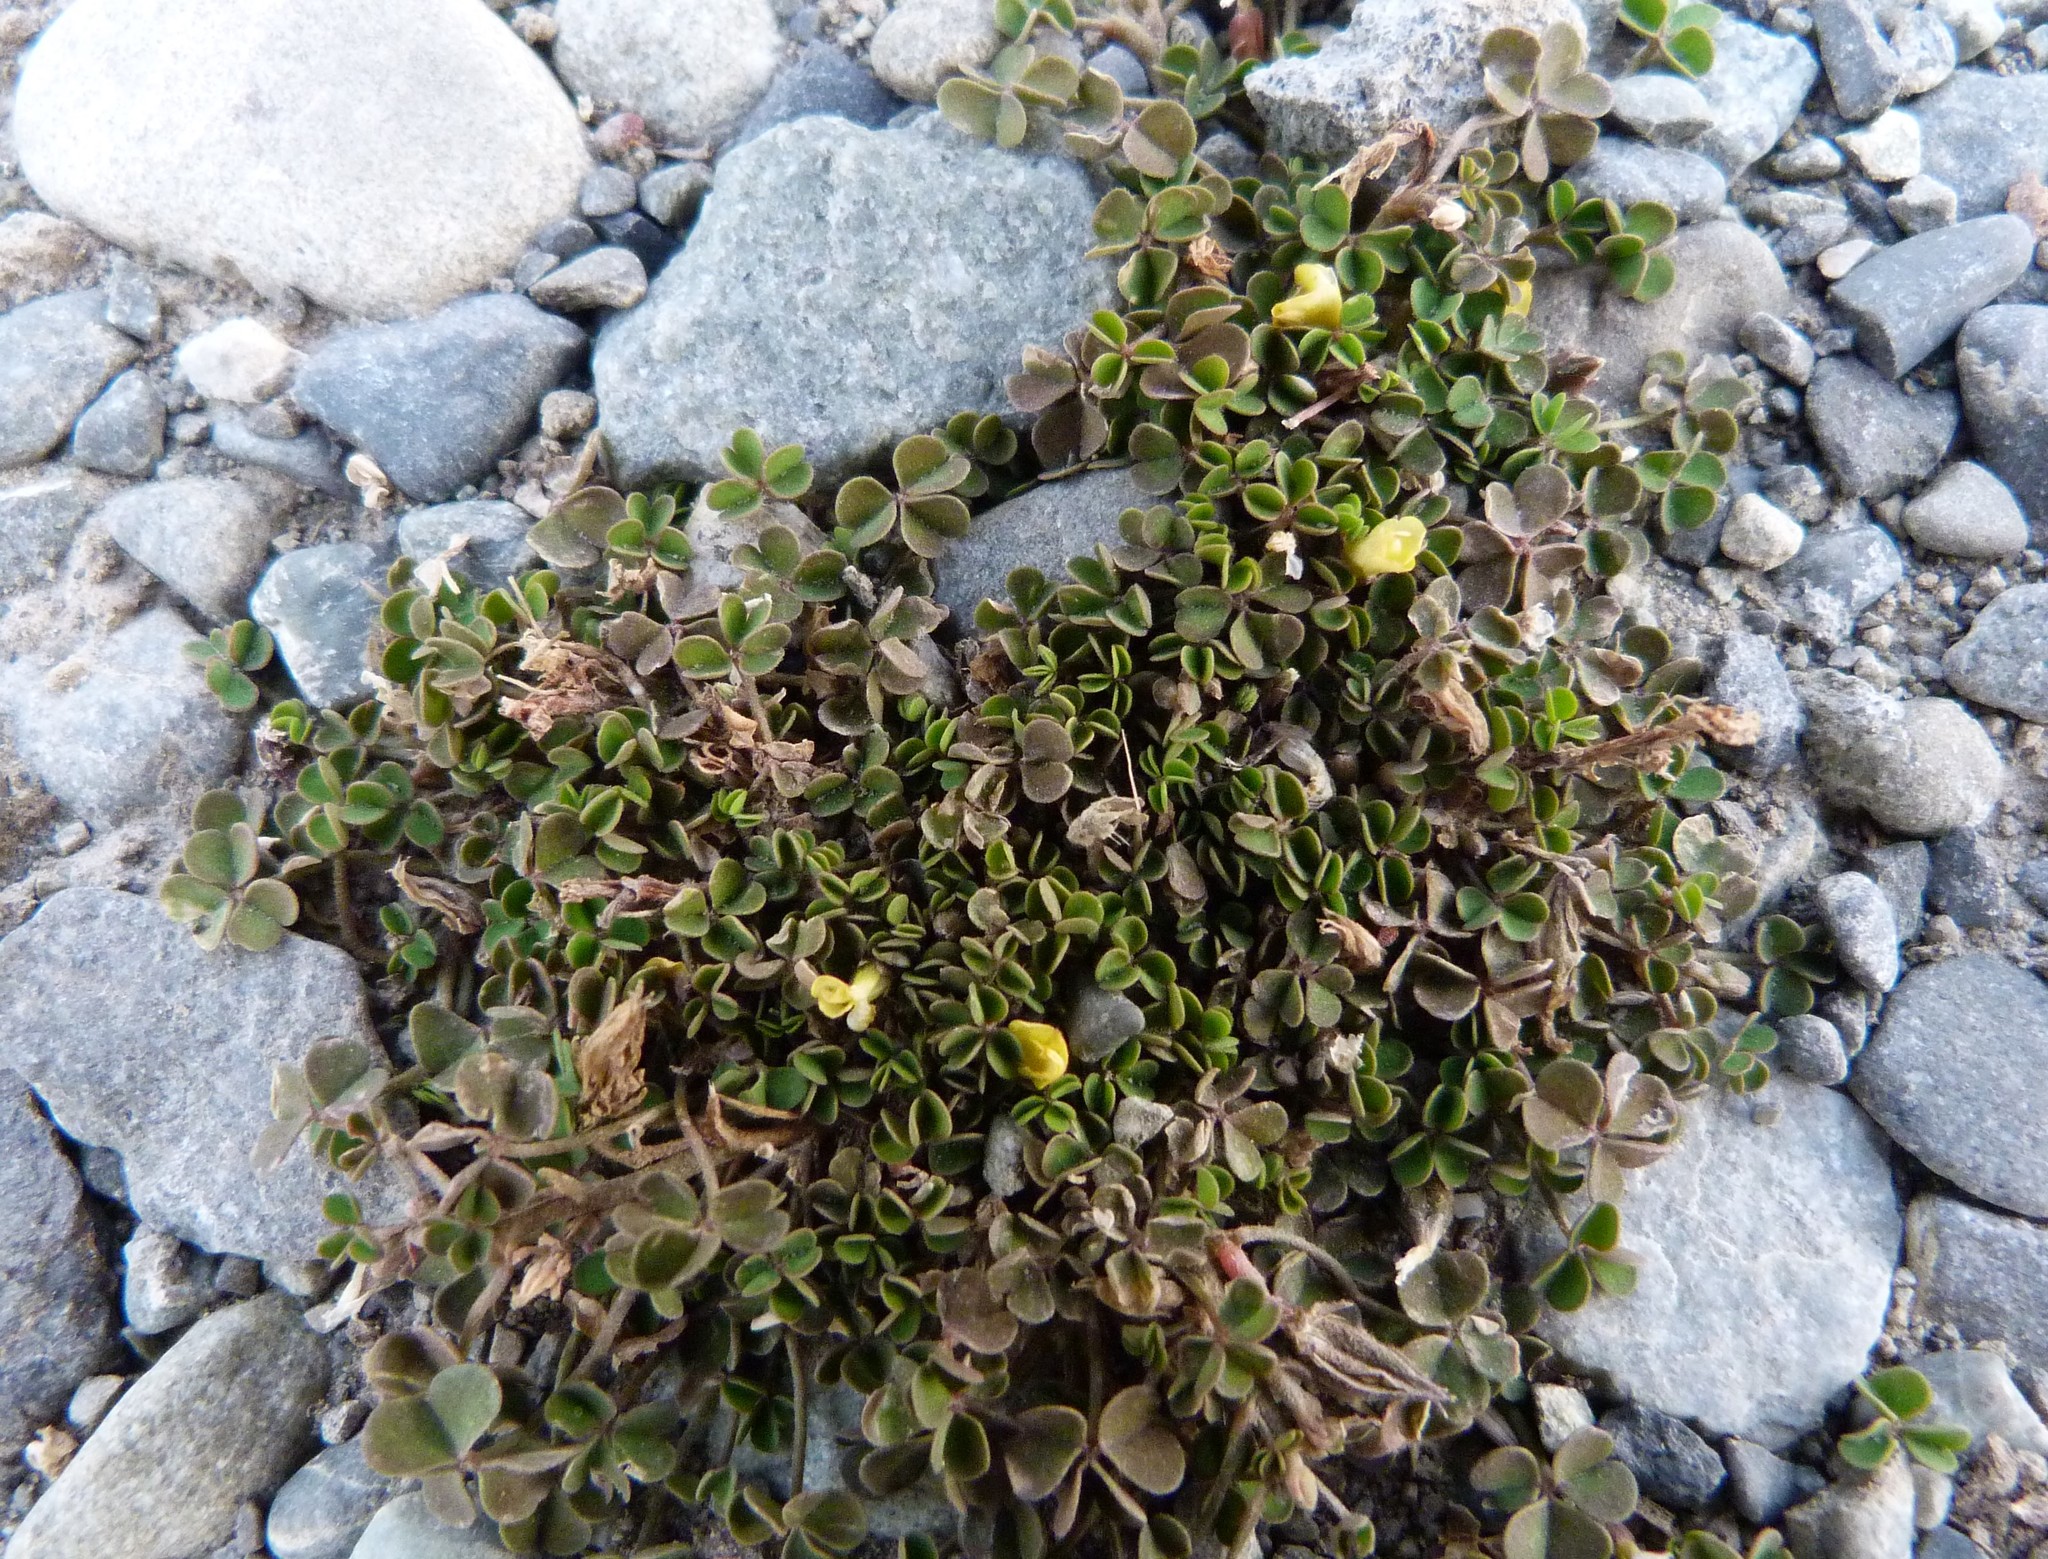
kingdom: Plantae
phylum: Tracheophyta
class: Magnoliopsida
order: Oxalidales
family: Oxalidaceae
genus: Oxalis
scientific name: Oxalis exilis
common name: Least yellow-sorrel
